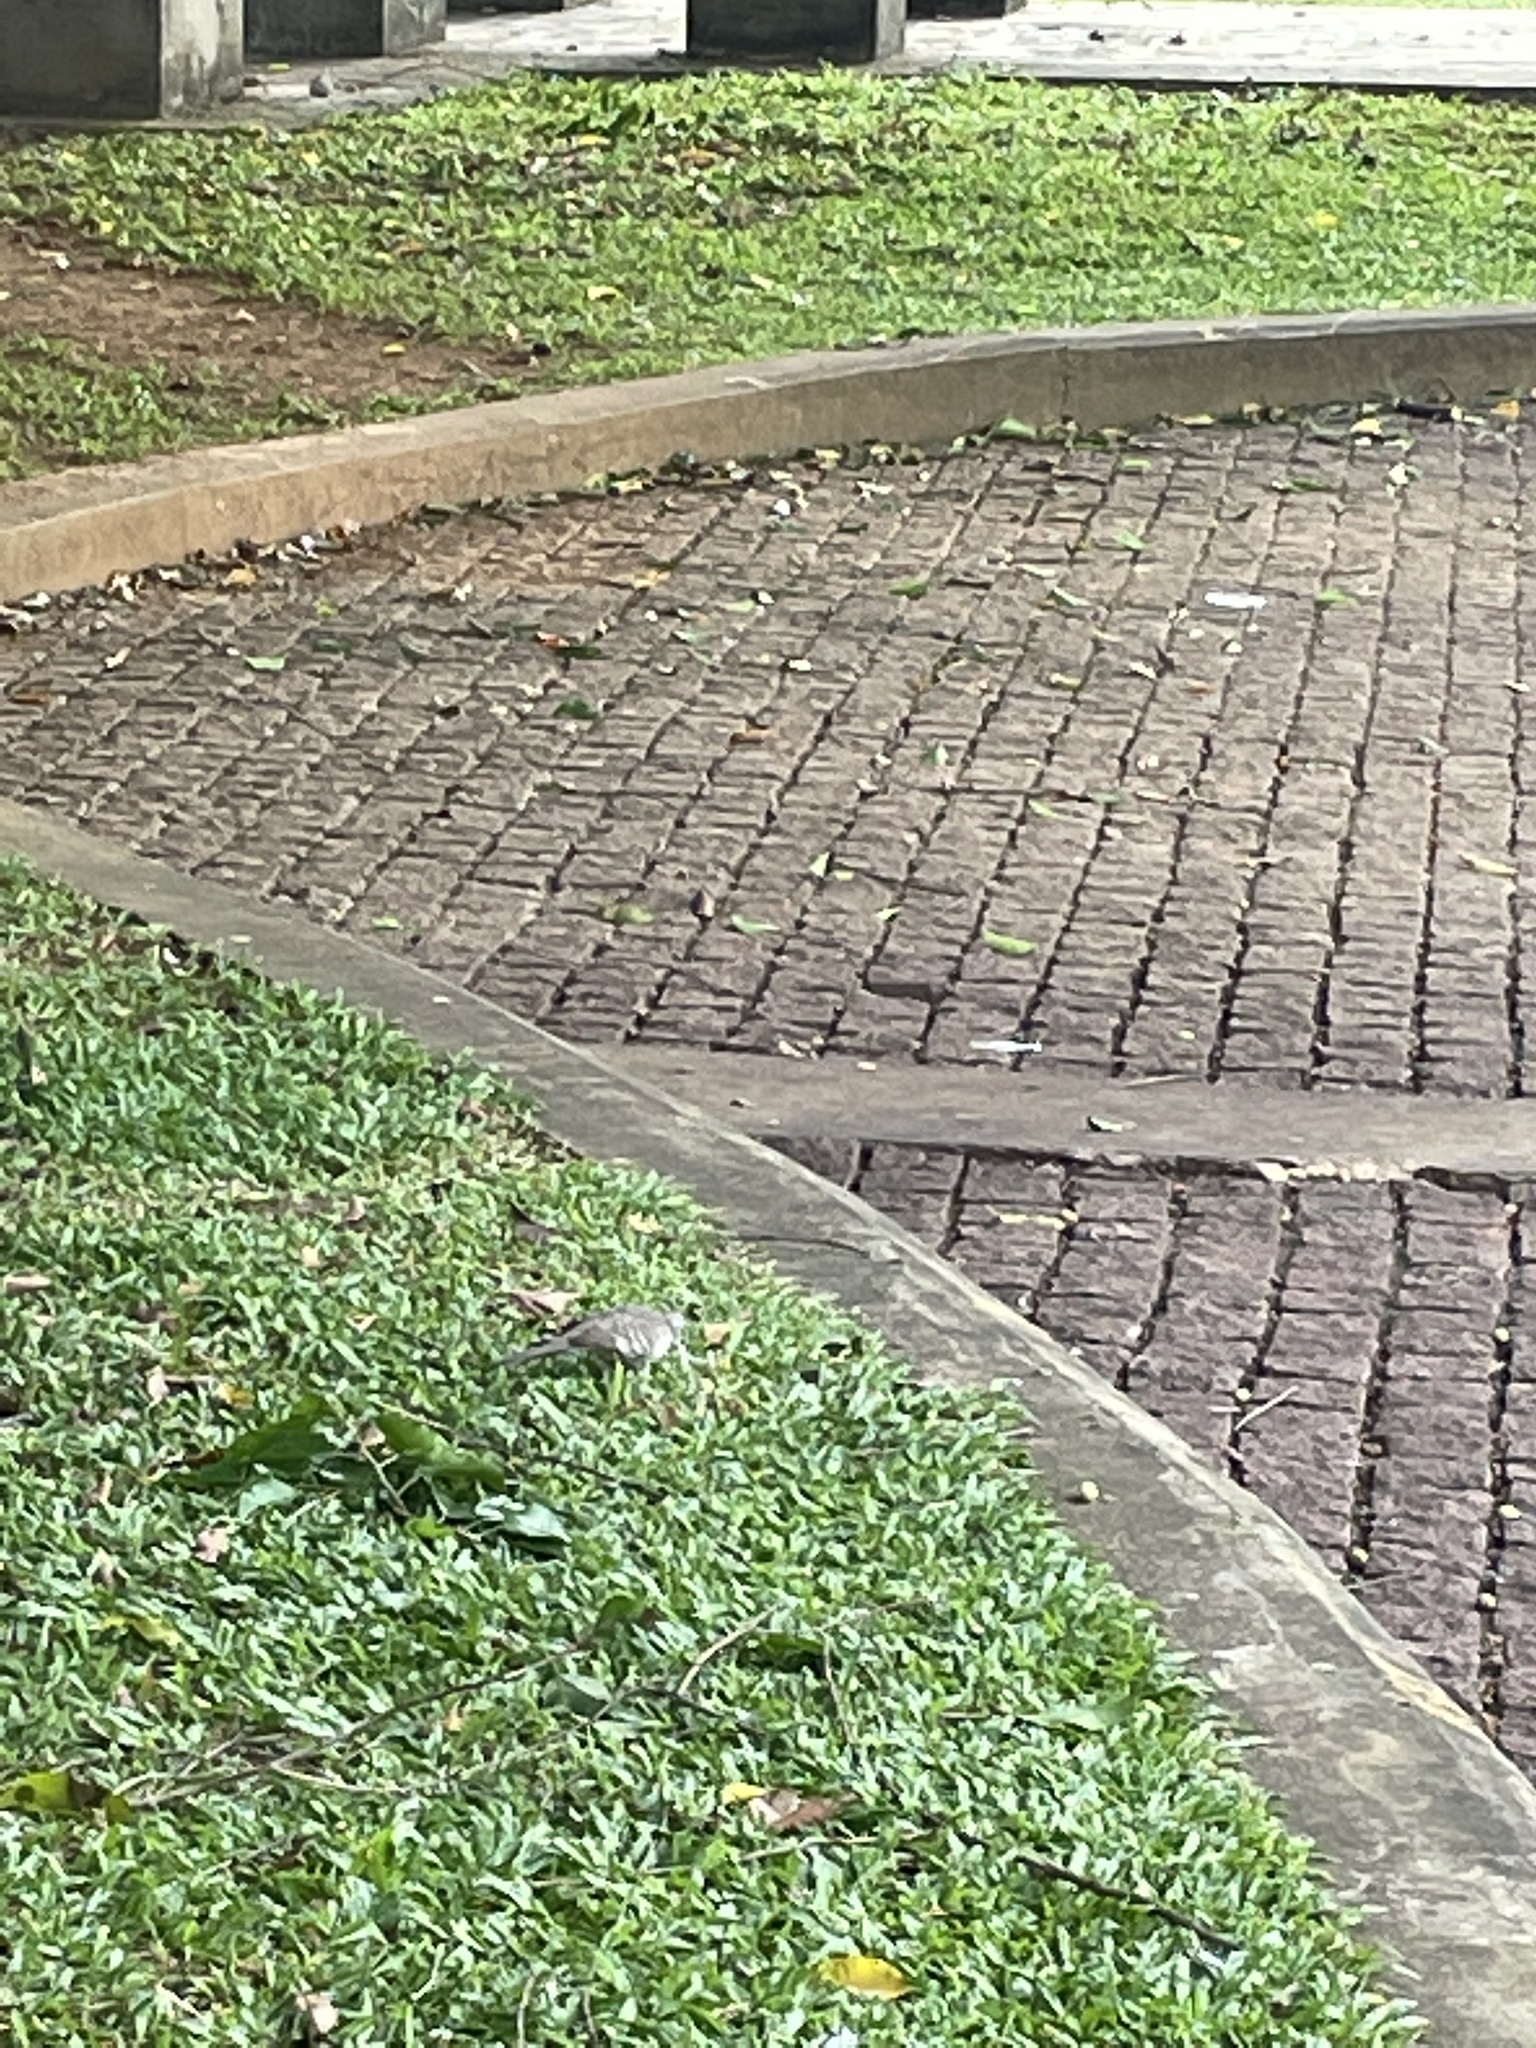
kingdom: Animalia
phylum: Chordata
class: Aves
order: Columbiformes
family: Columbidae
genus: Geopelia
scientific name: Geopelia striata
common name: Zebra dove
